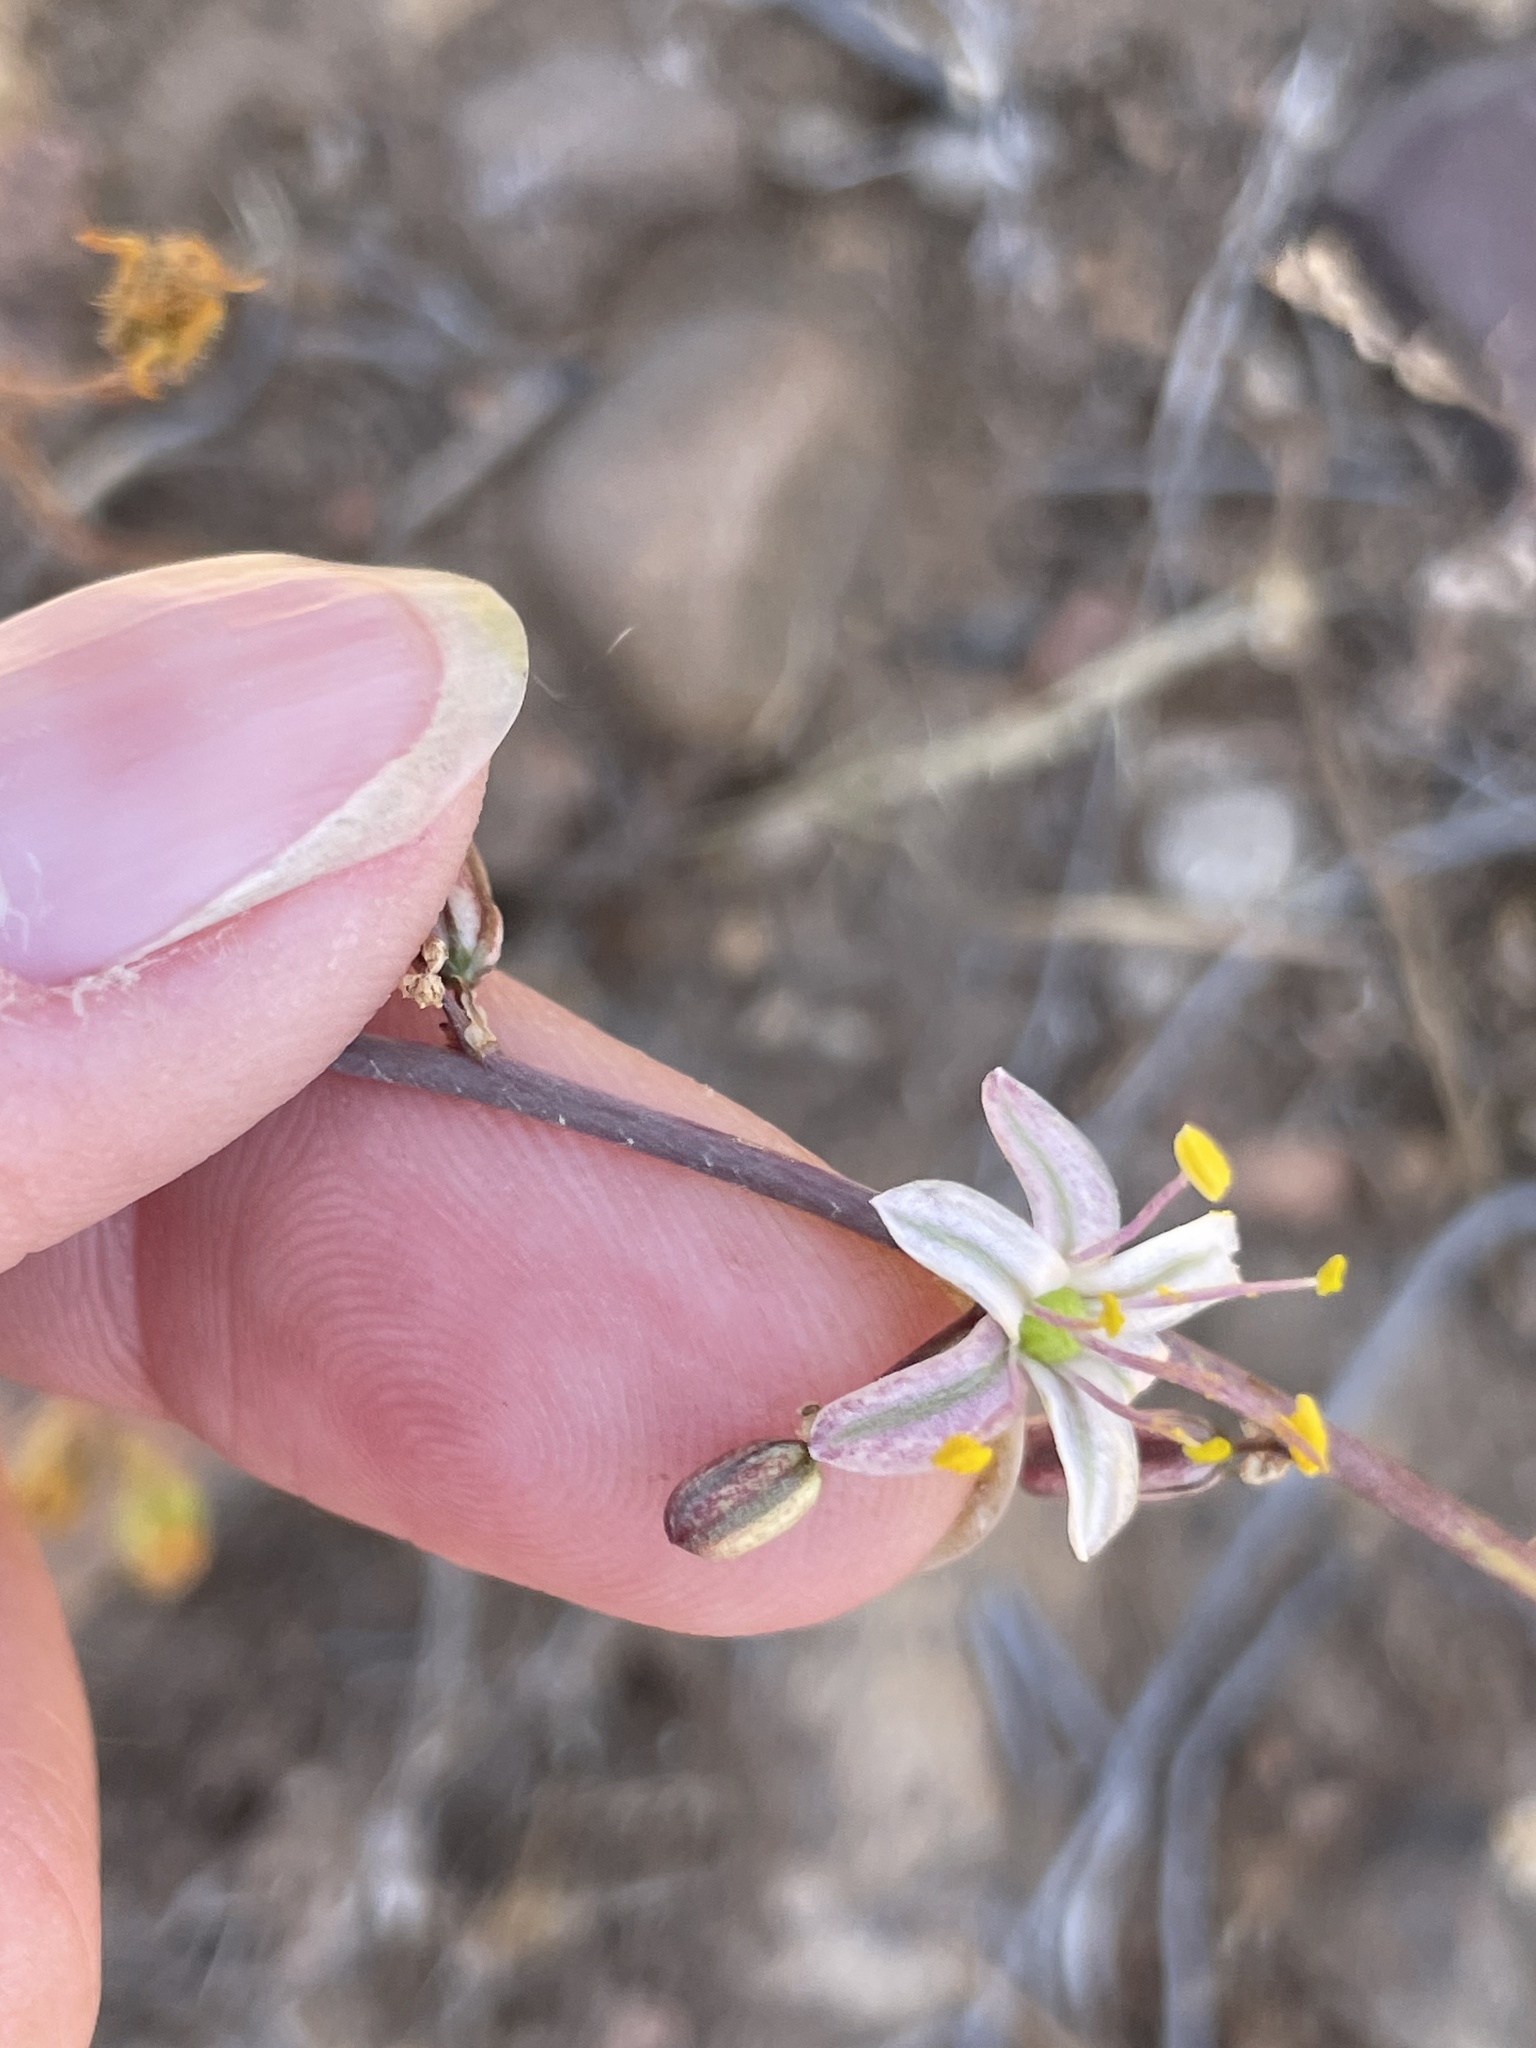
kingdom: Plantae
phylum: Tracheophyta
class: Liliopsida
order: Asparagales
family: Asparagaceae
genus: Hooveria
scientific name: Hooveria parviflora
